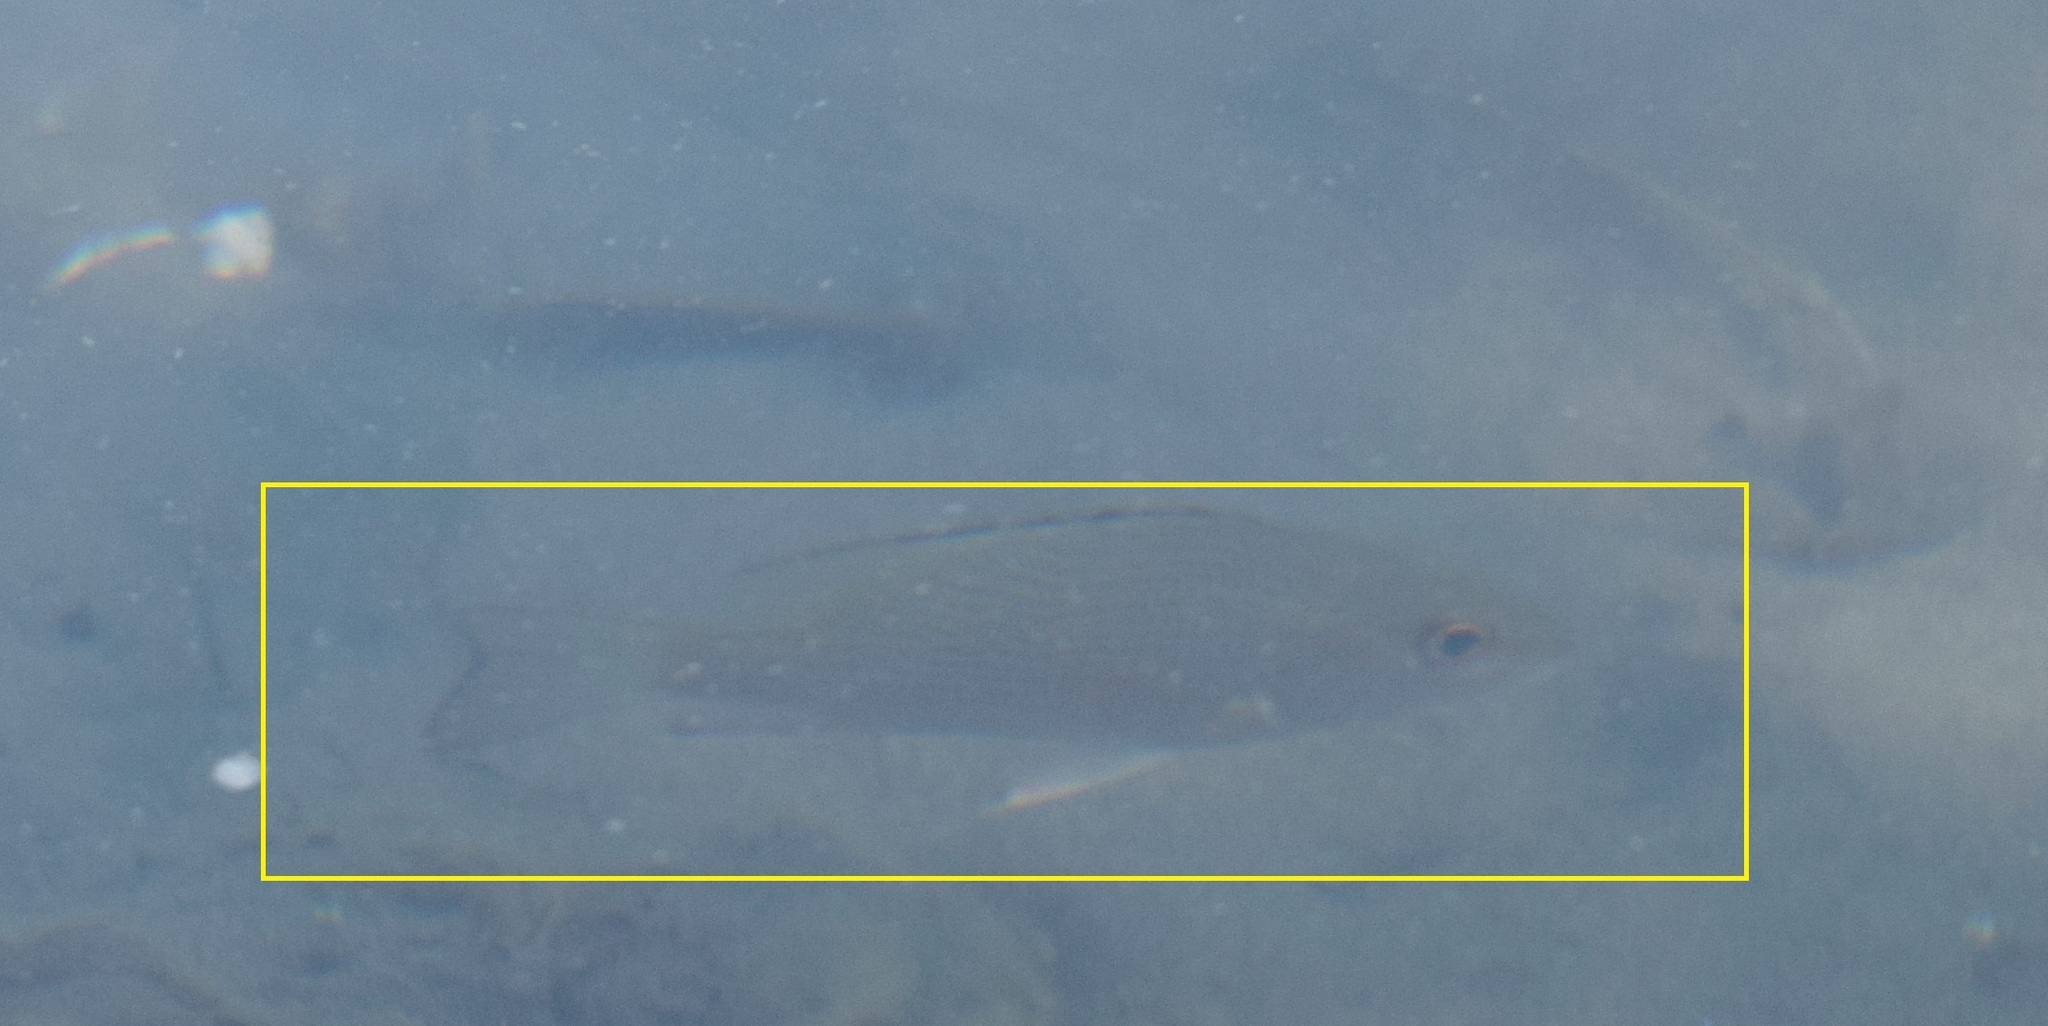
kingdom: Animalia
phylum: Chordata
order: Perciformes
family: Lutjanidae
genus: Lutjanus
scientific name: Lutjanus griseus
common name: Gray snapper
